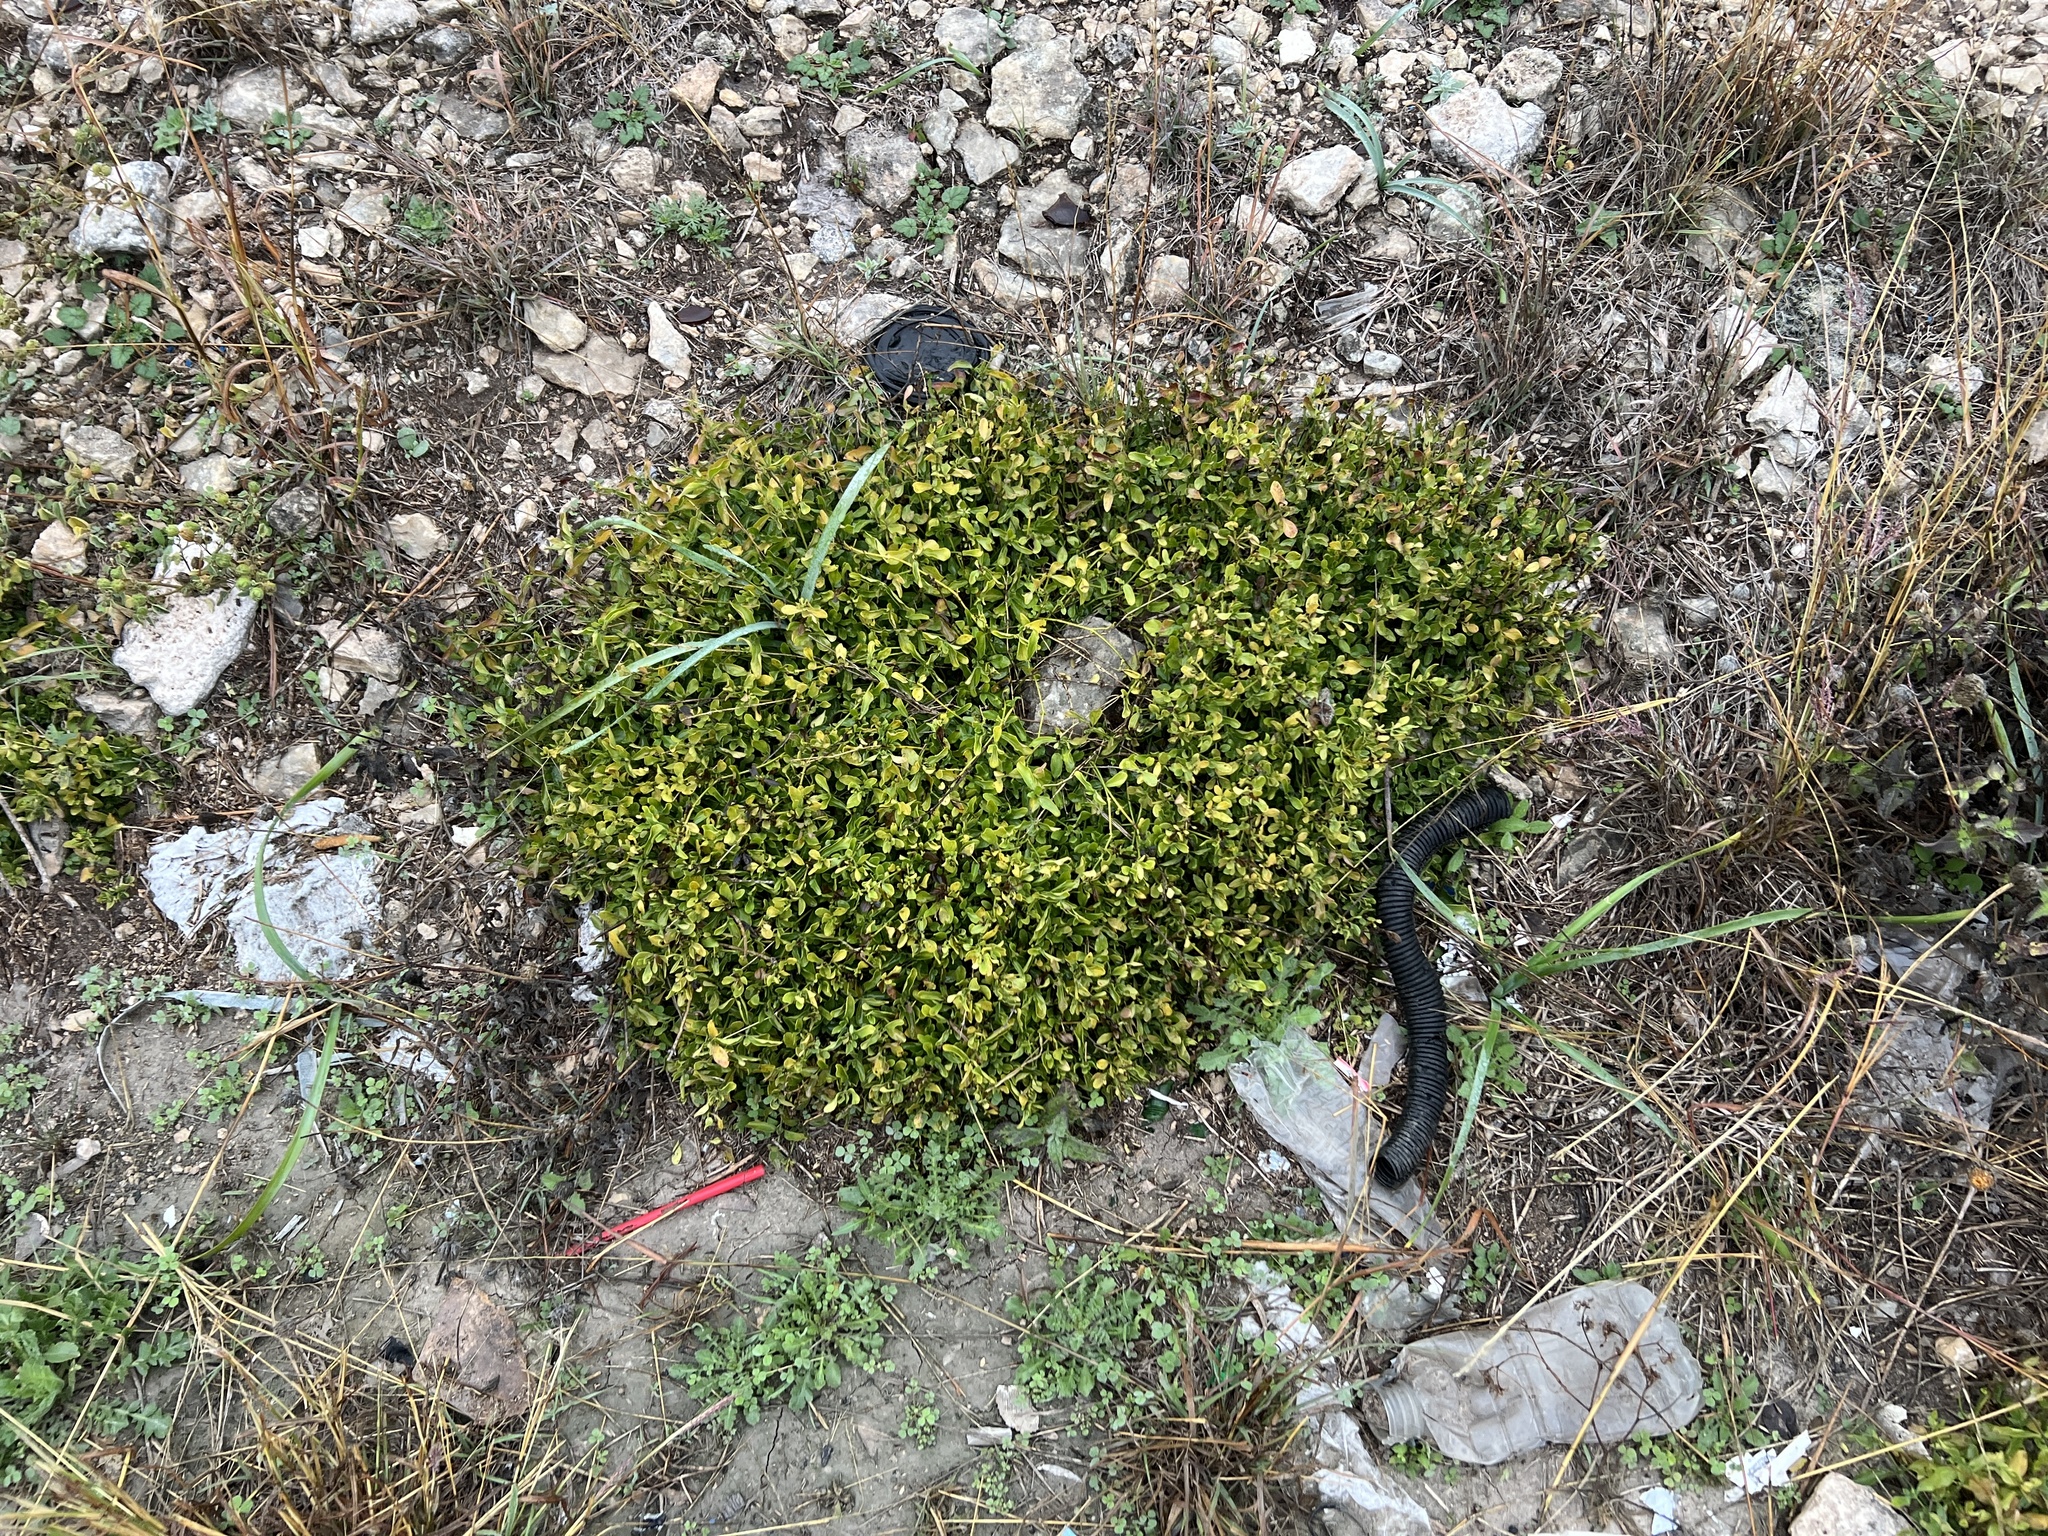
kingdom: Plantae
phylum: Tracheophyta
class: Magnoliopsida
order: Lamiales
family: Acanthaceae
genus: Justicia
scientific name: Justicia pilosella
